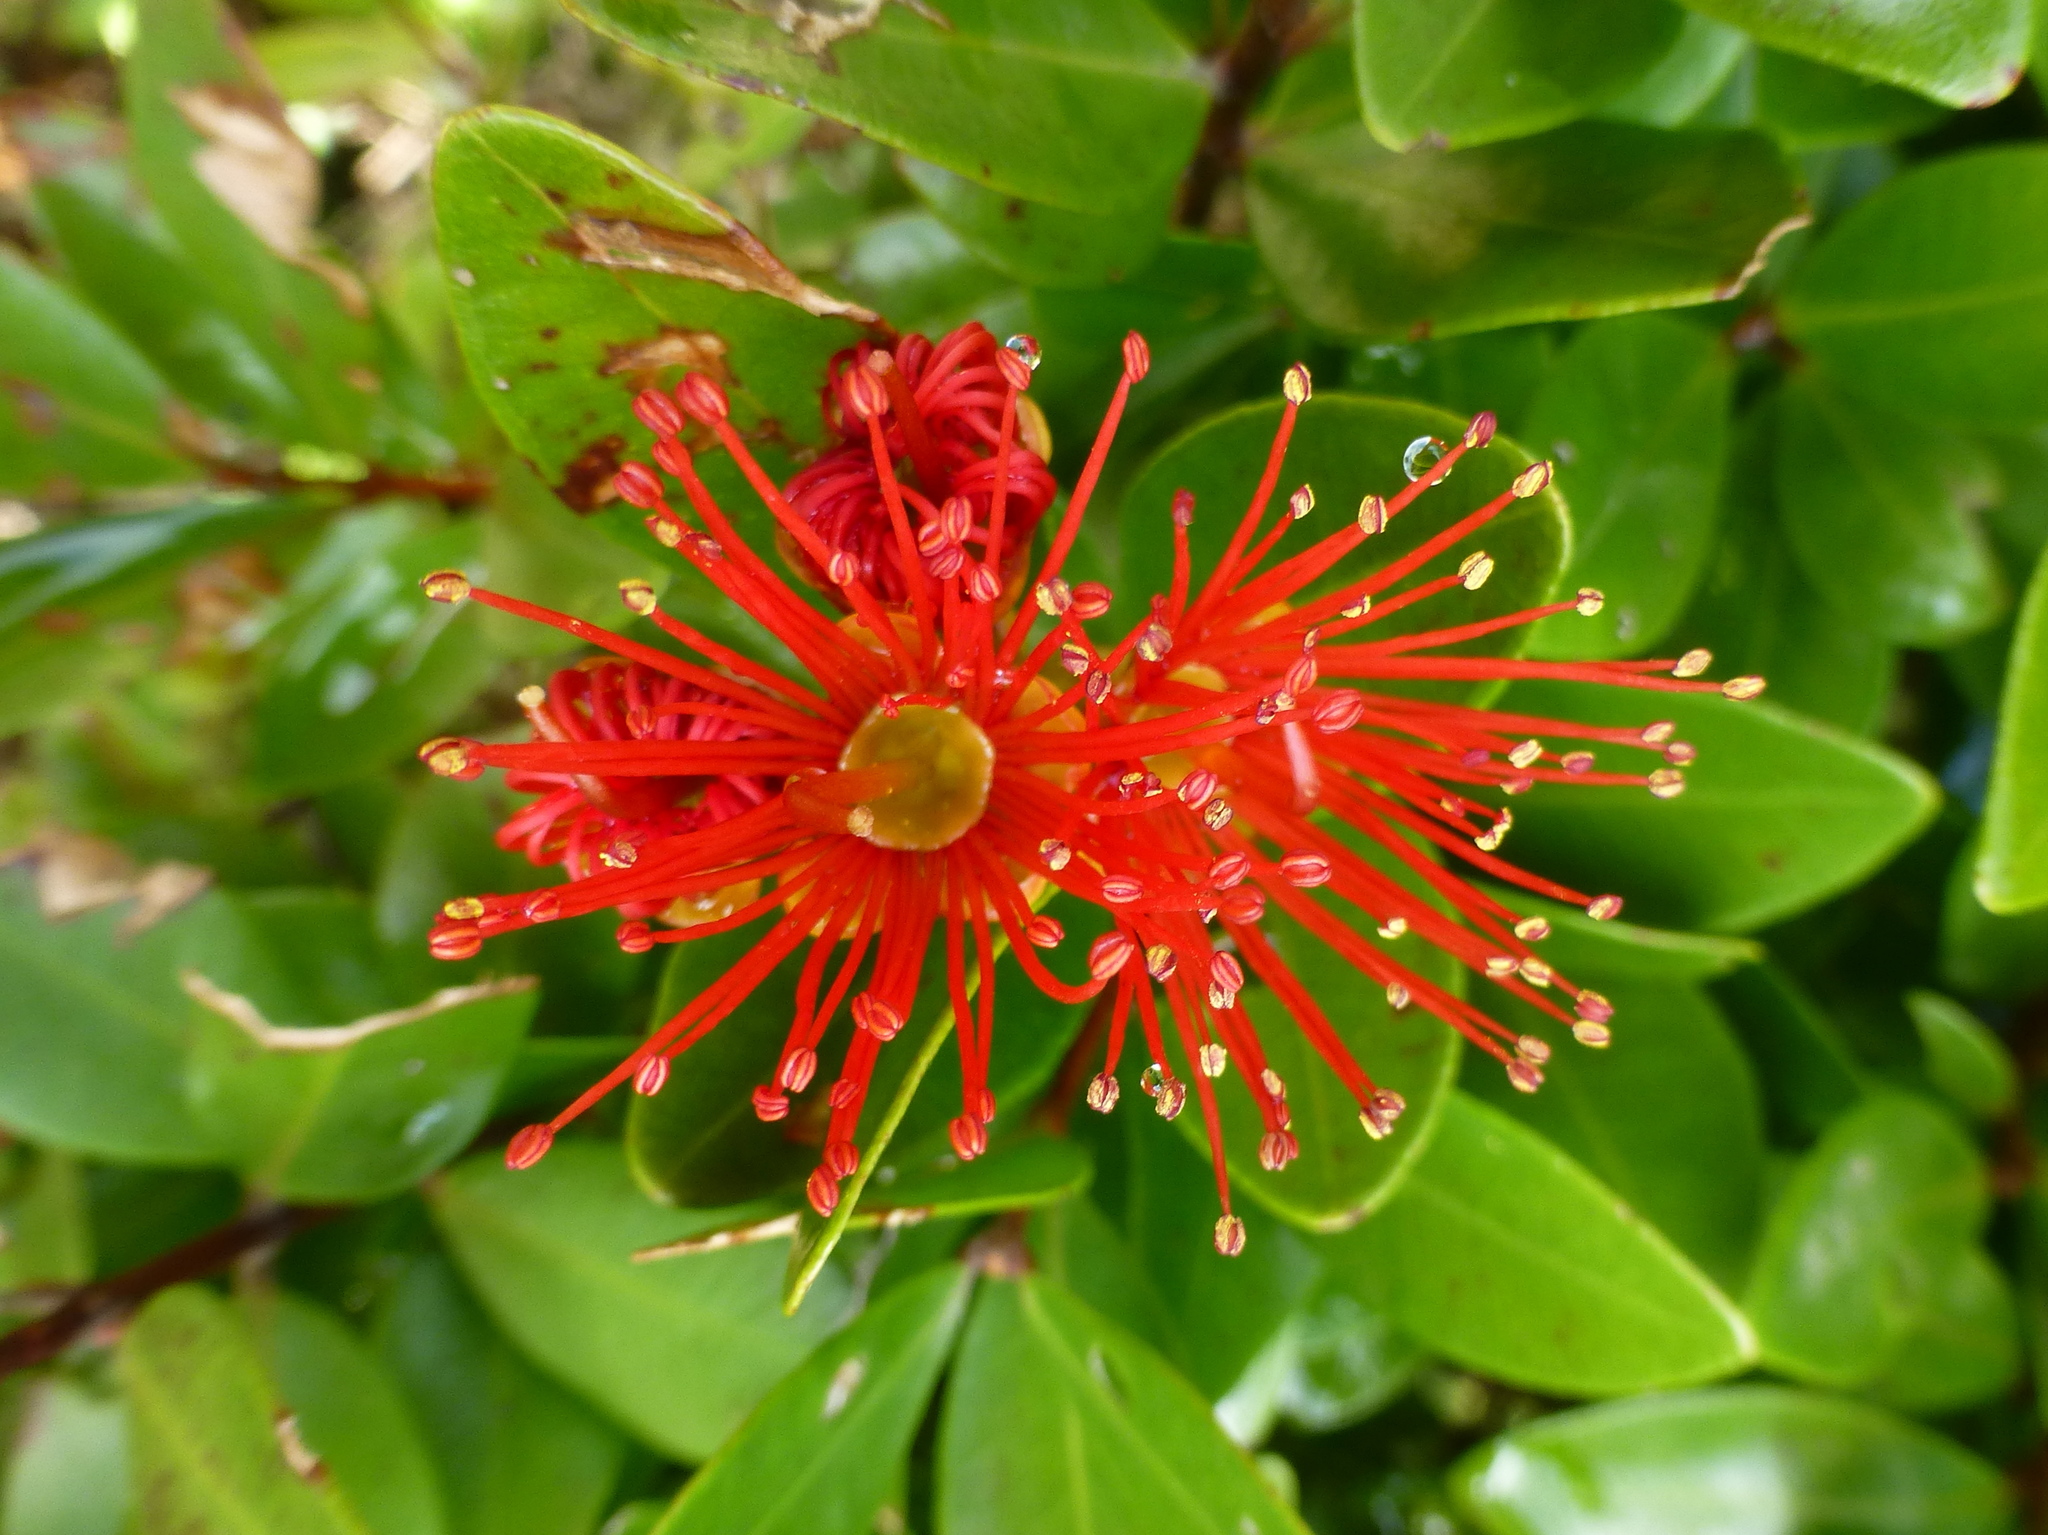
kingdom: Plantae
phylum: Tracheophyta
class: Magnoliopsida
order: Myrtales
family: Myrtaceae
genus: Metrosideros
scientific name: Metrosideros fulgens
